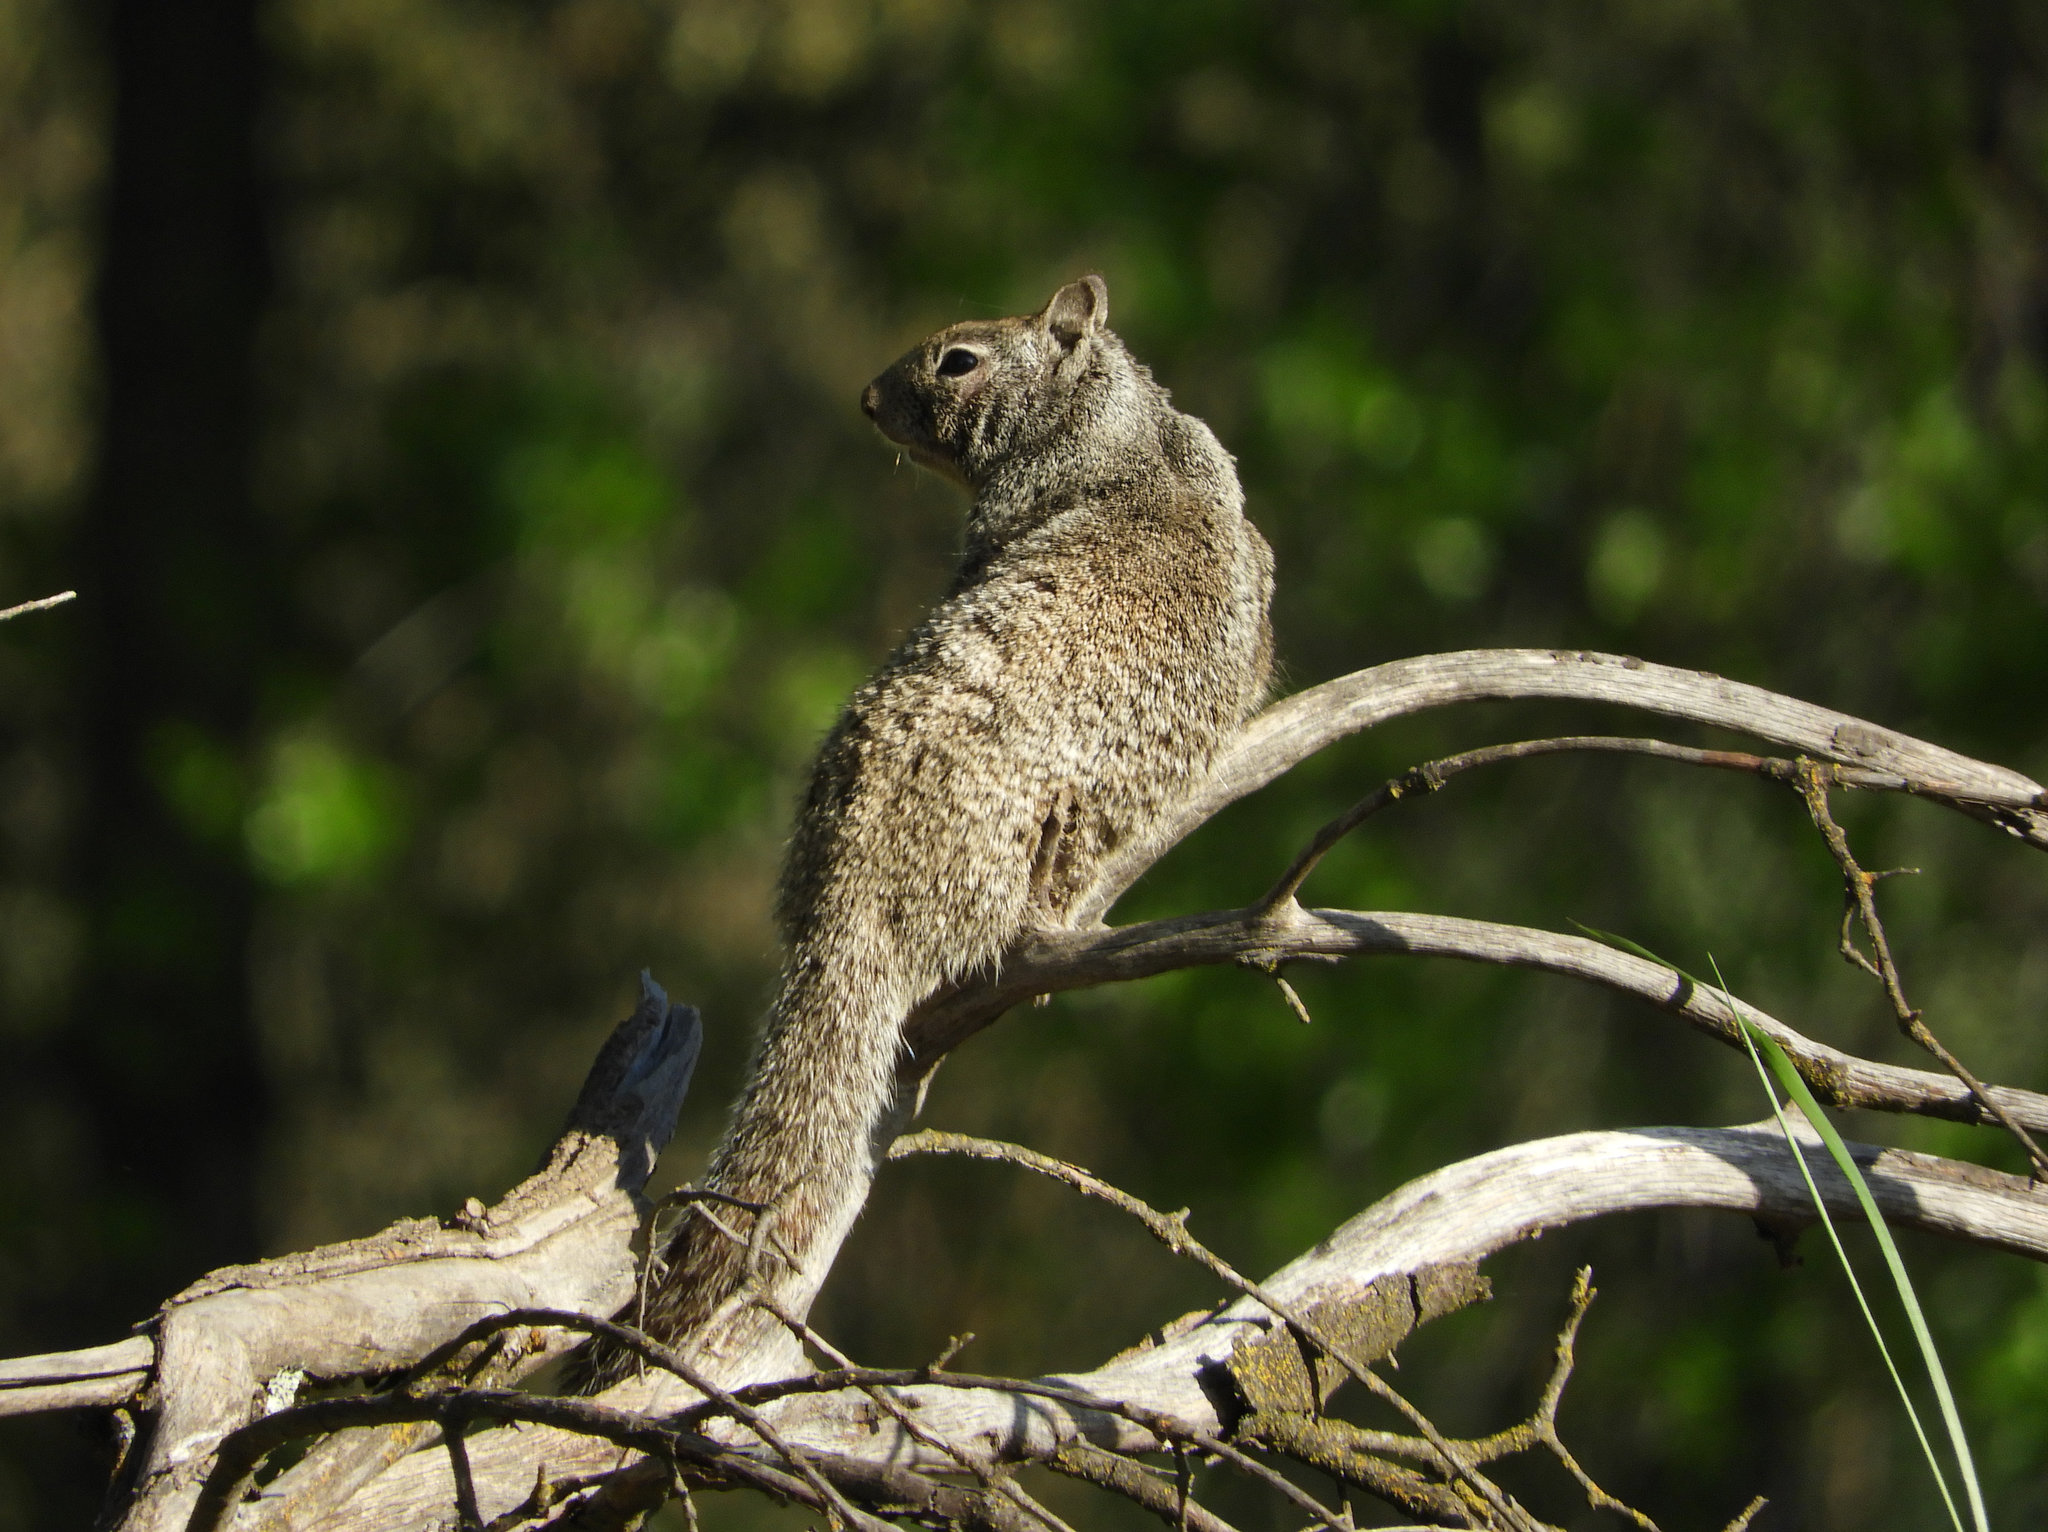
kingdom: Animalia
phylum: Chordata
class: Mammalia
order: Rodentia
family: Sciuridae
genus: Otospermophilus
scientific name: Otospermophilus beecheyi
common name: California ground squirrel
